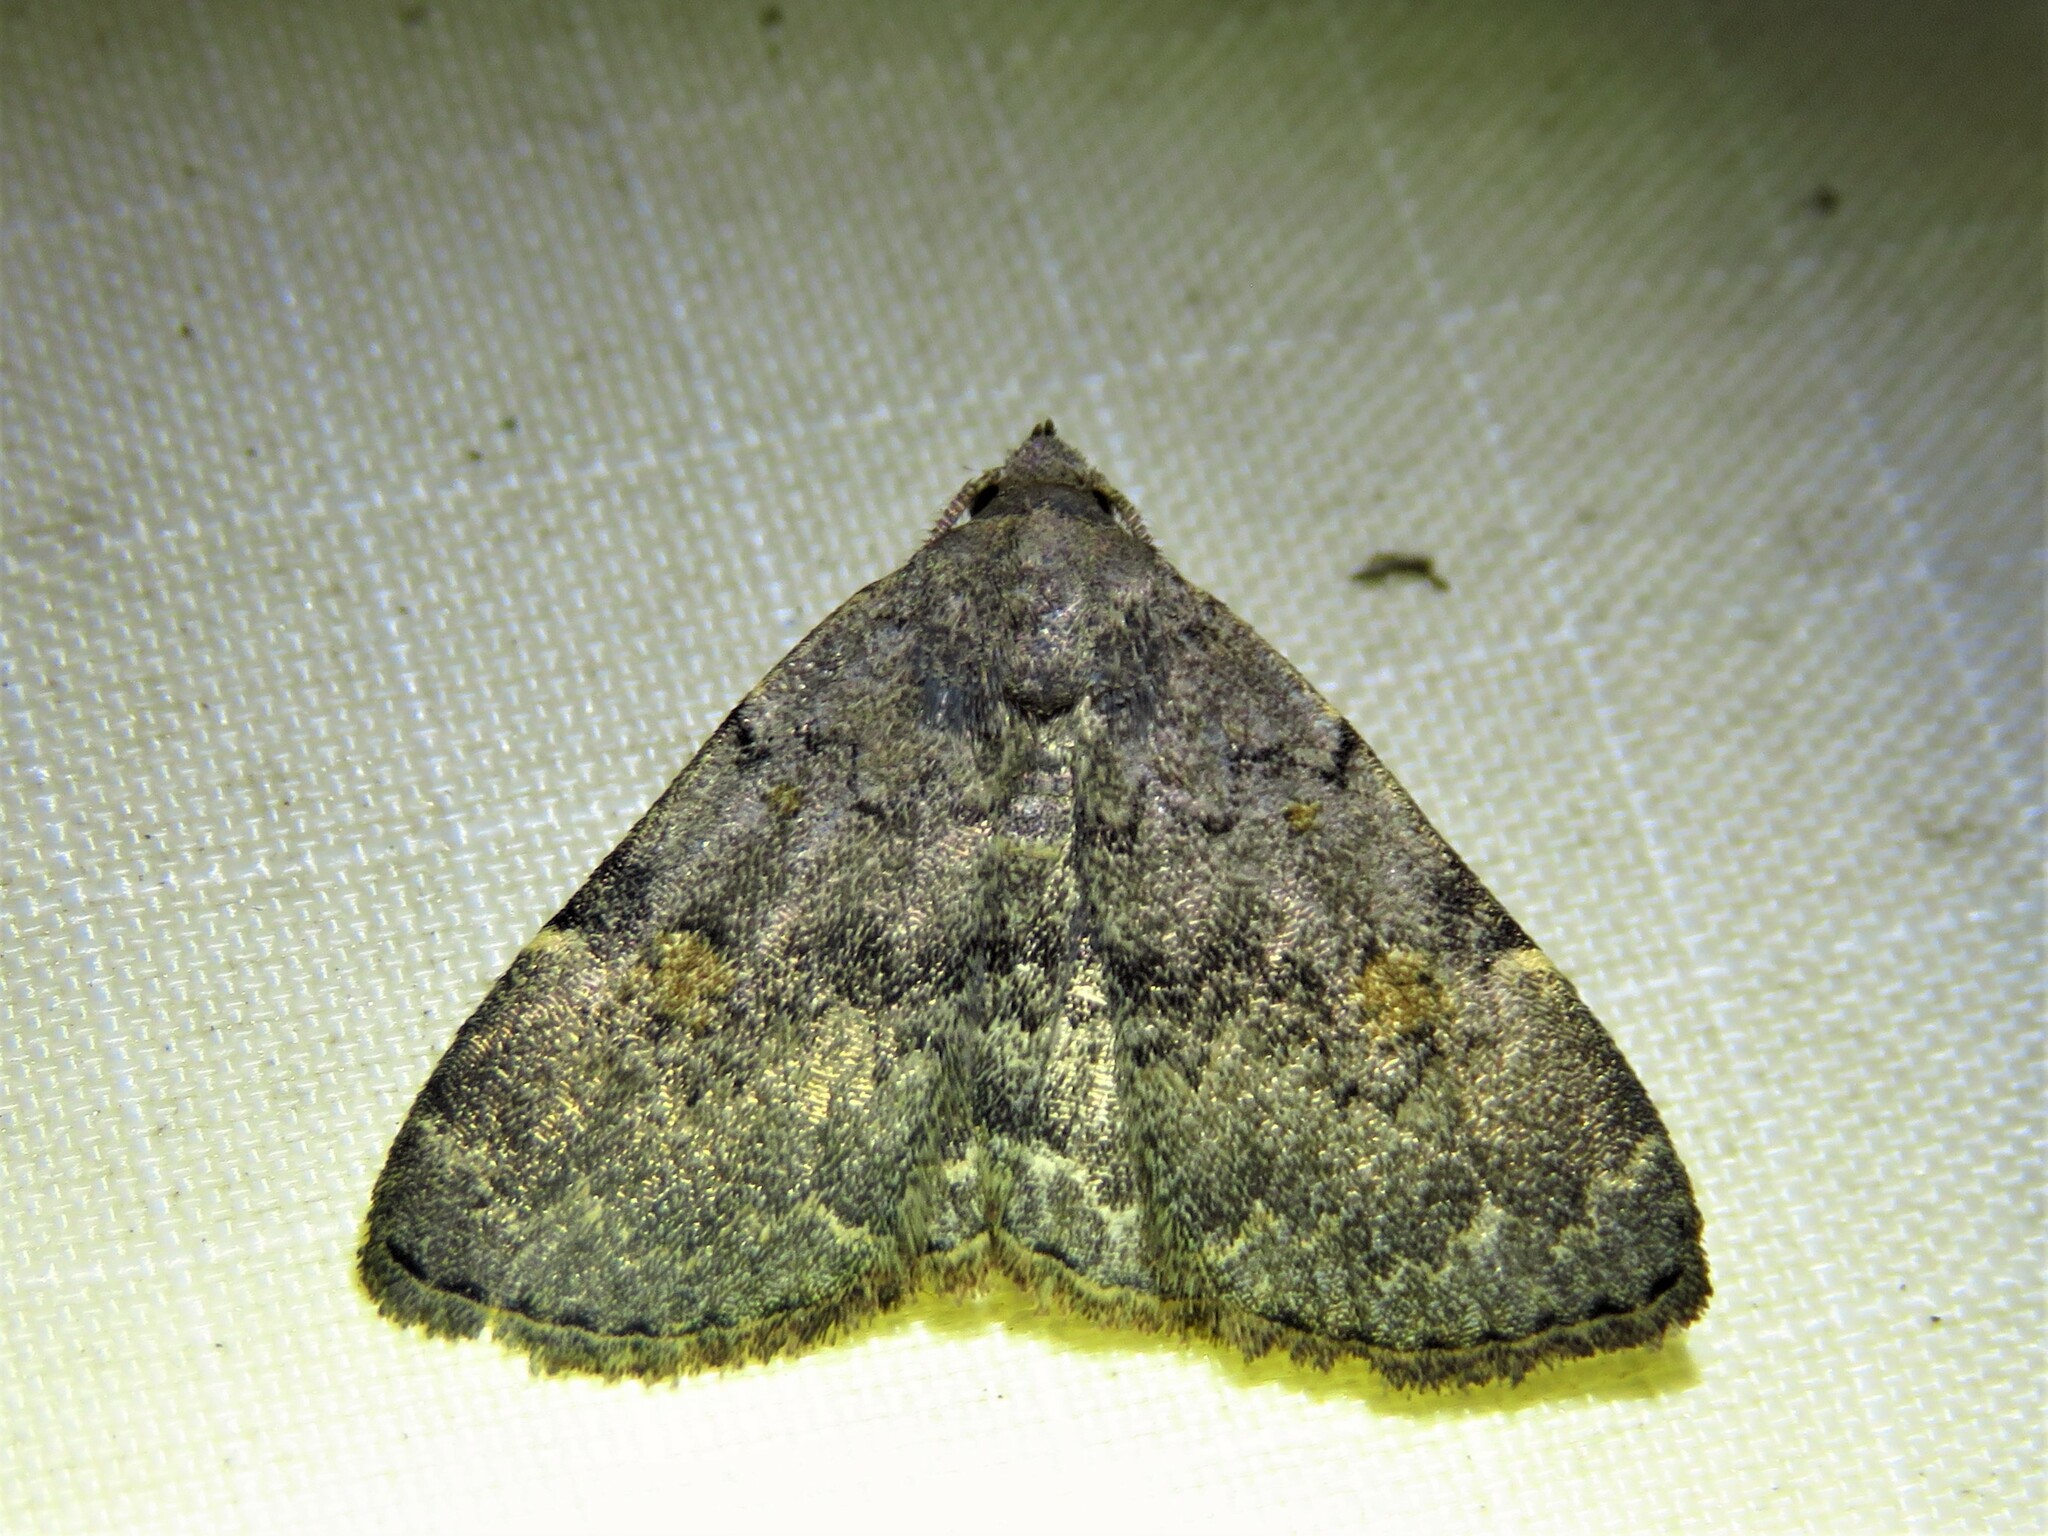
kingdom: Animalia
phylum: Arthropoda
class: Insecta
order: Lepidoptera
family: Erebidae
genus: Idia
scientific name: Idia aemula
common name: Common idia moth
